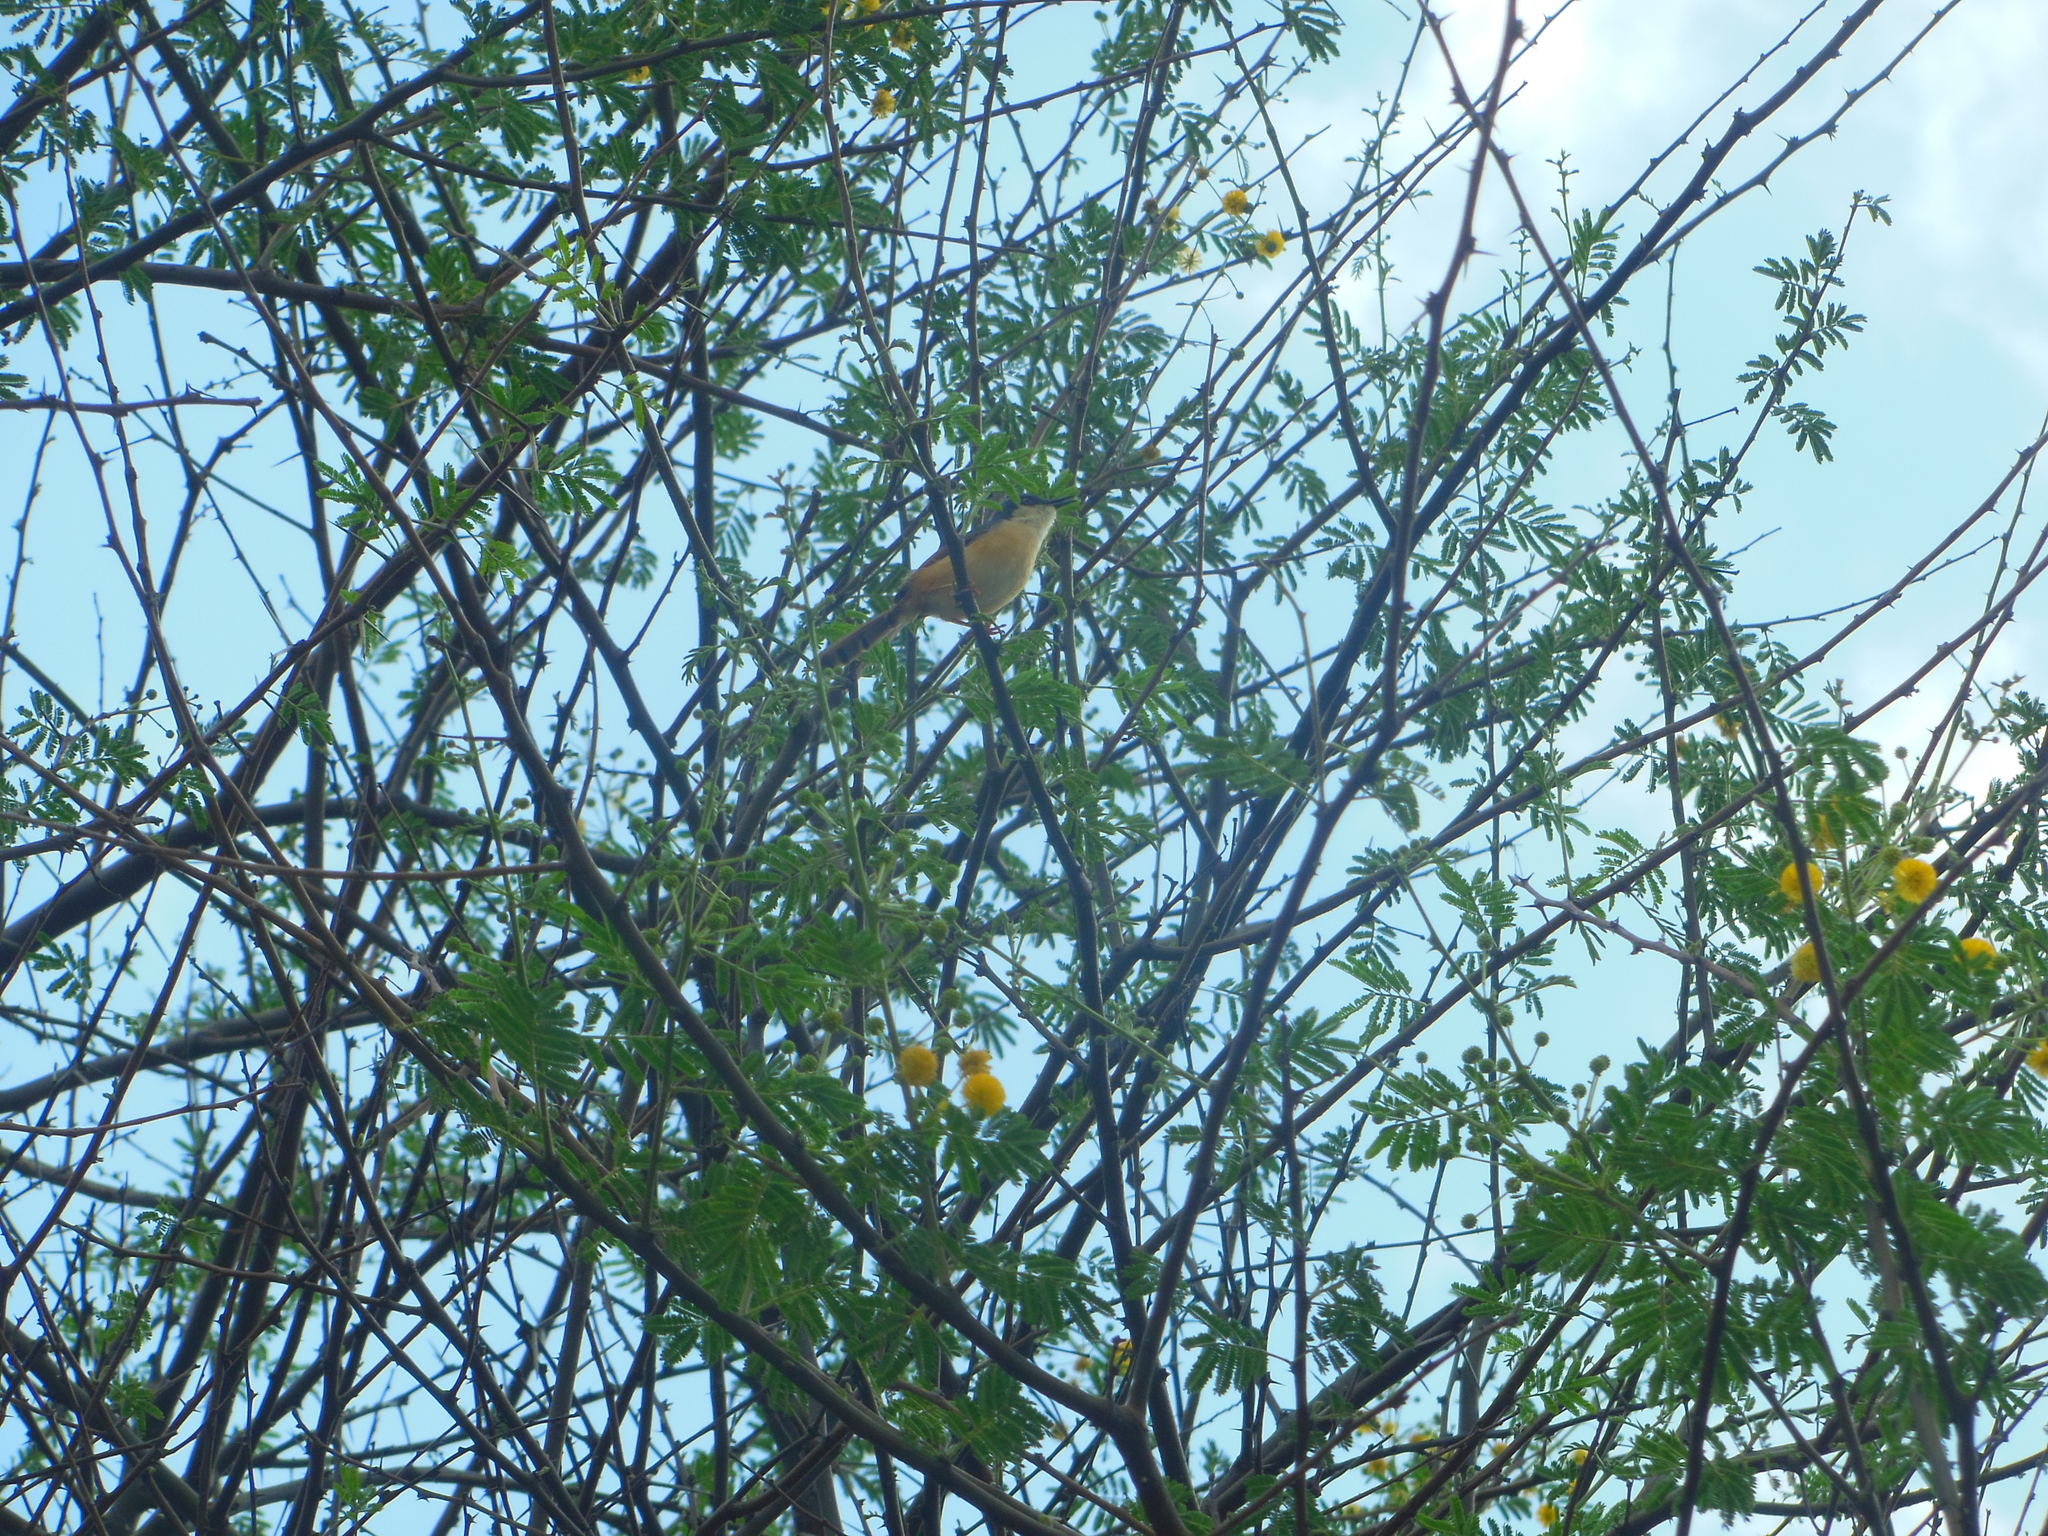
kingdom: Animalia
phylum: Chordata
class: Aves
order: Passeriformes
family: Cisticolidae
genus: Prinia
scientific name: Prinia socialis
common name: Ashy prinia
